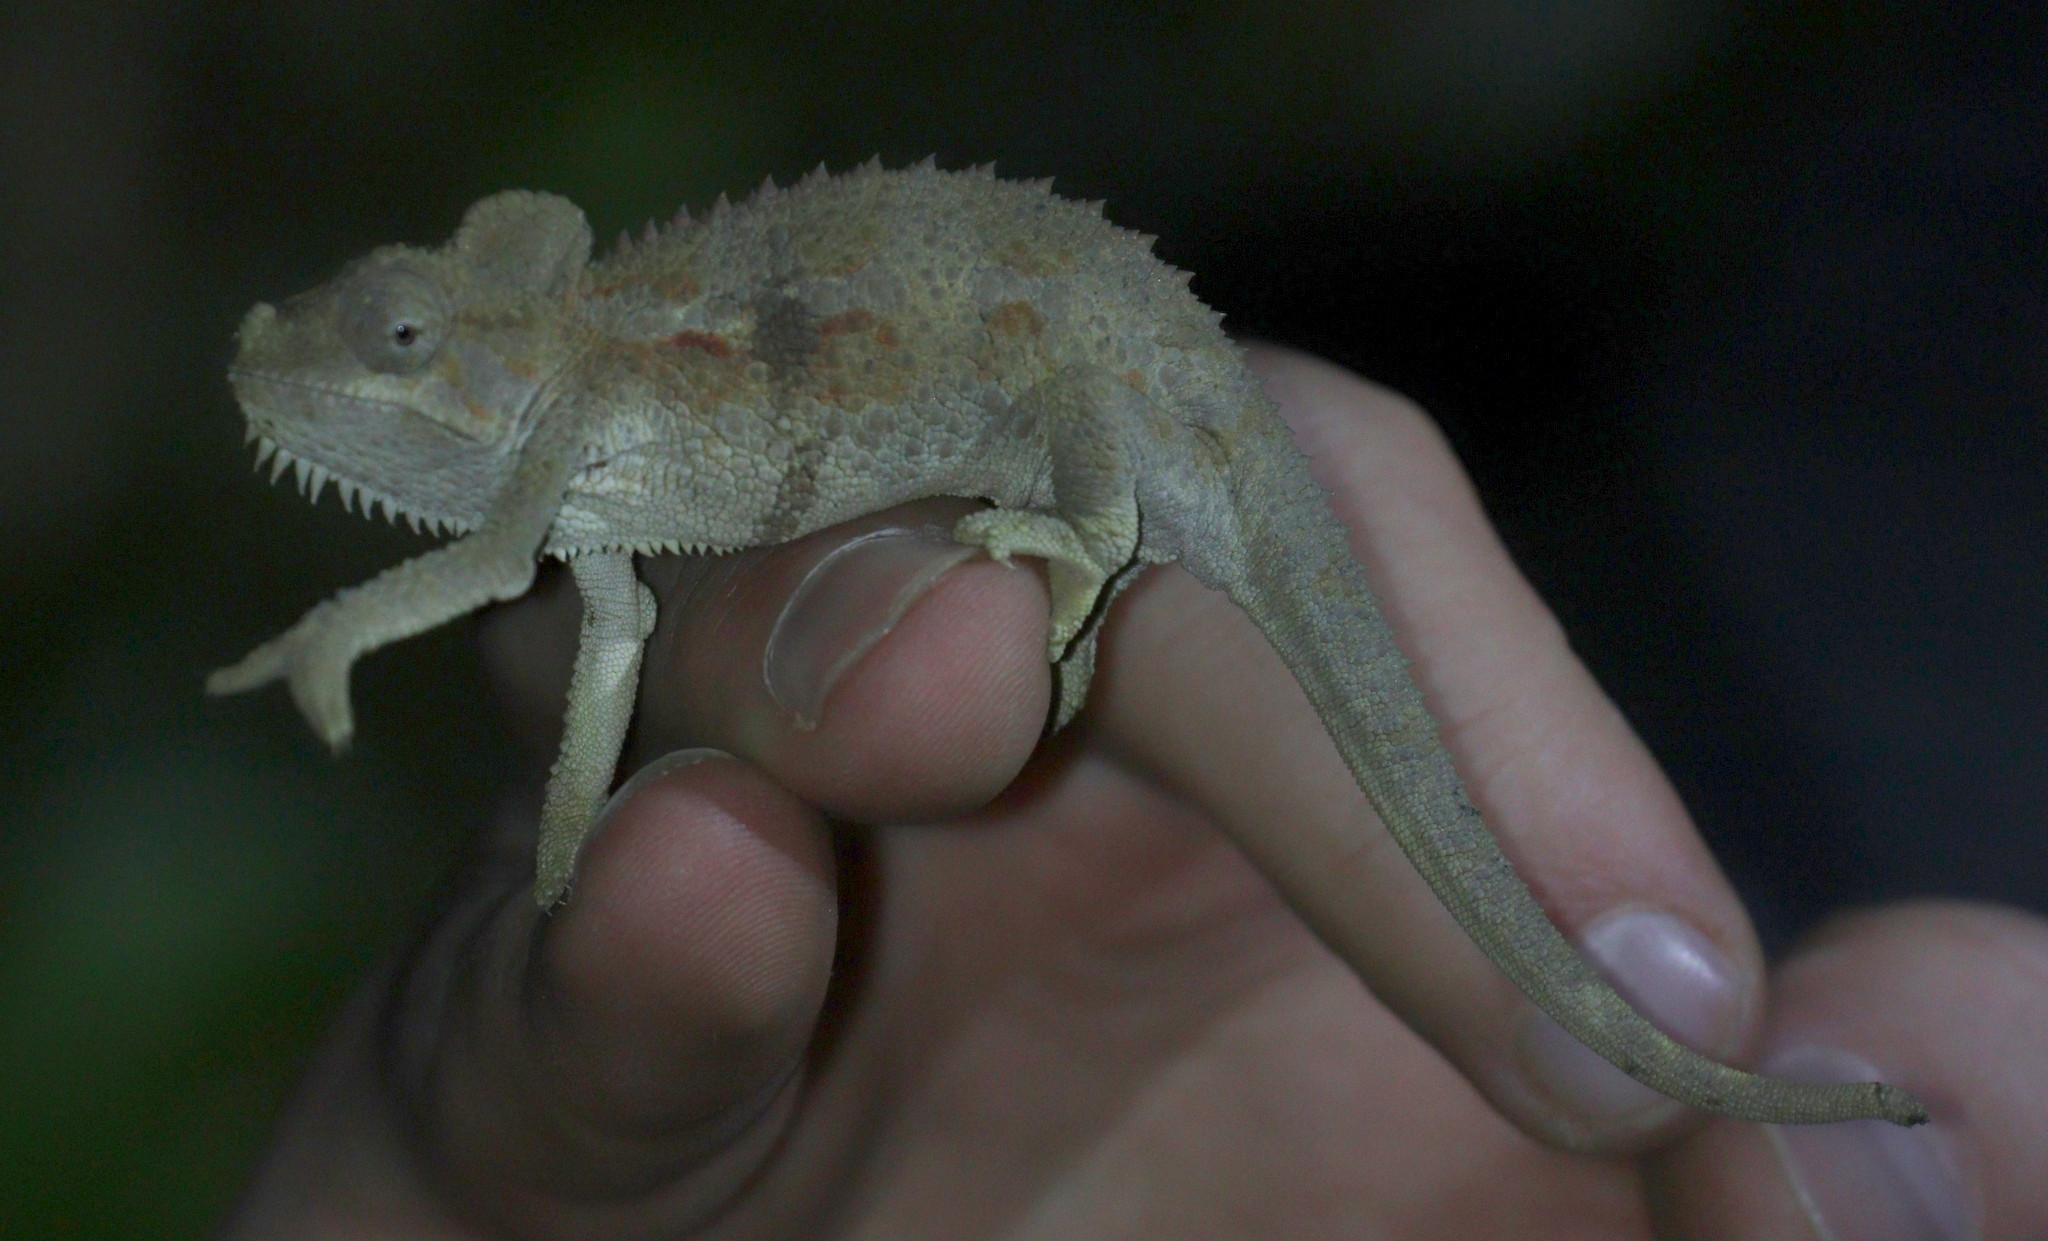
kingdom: Animalia
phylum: Chordata
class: Squamata
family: Chamaeleonidae
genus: Trioceros
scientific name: Trioceros hoehnelii
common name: High-casqued chameleon
